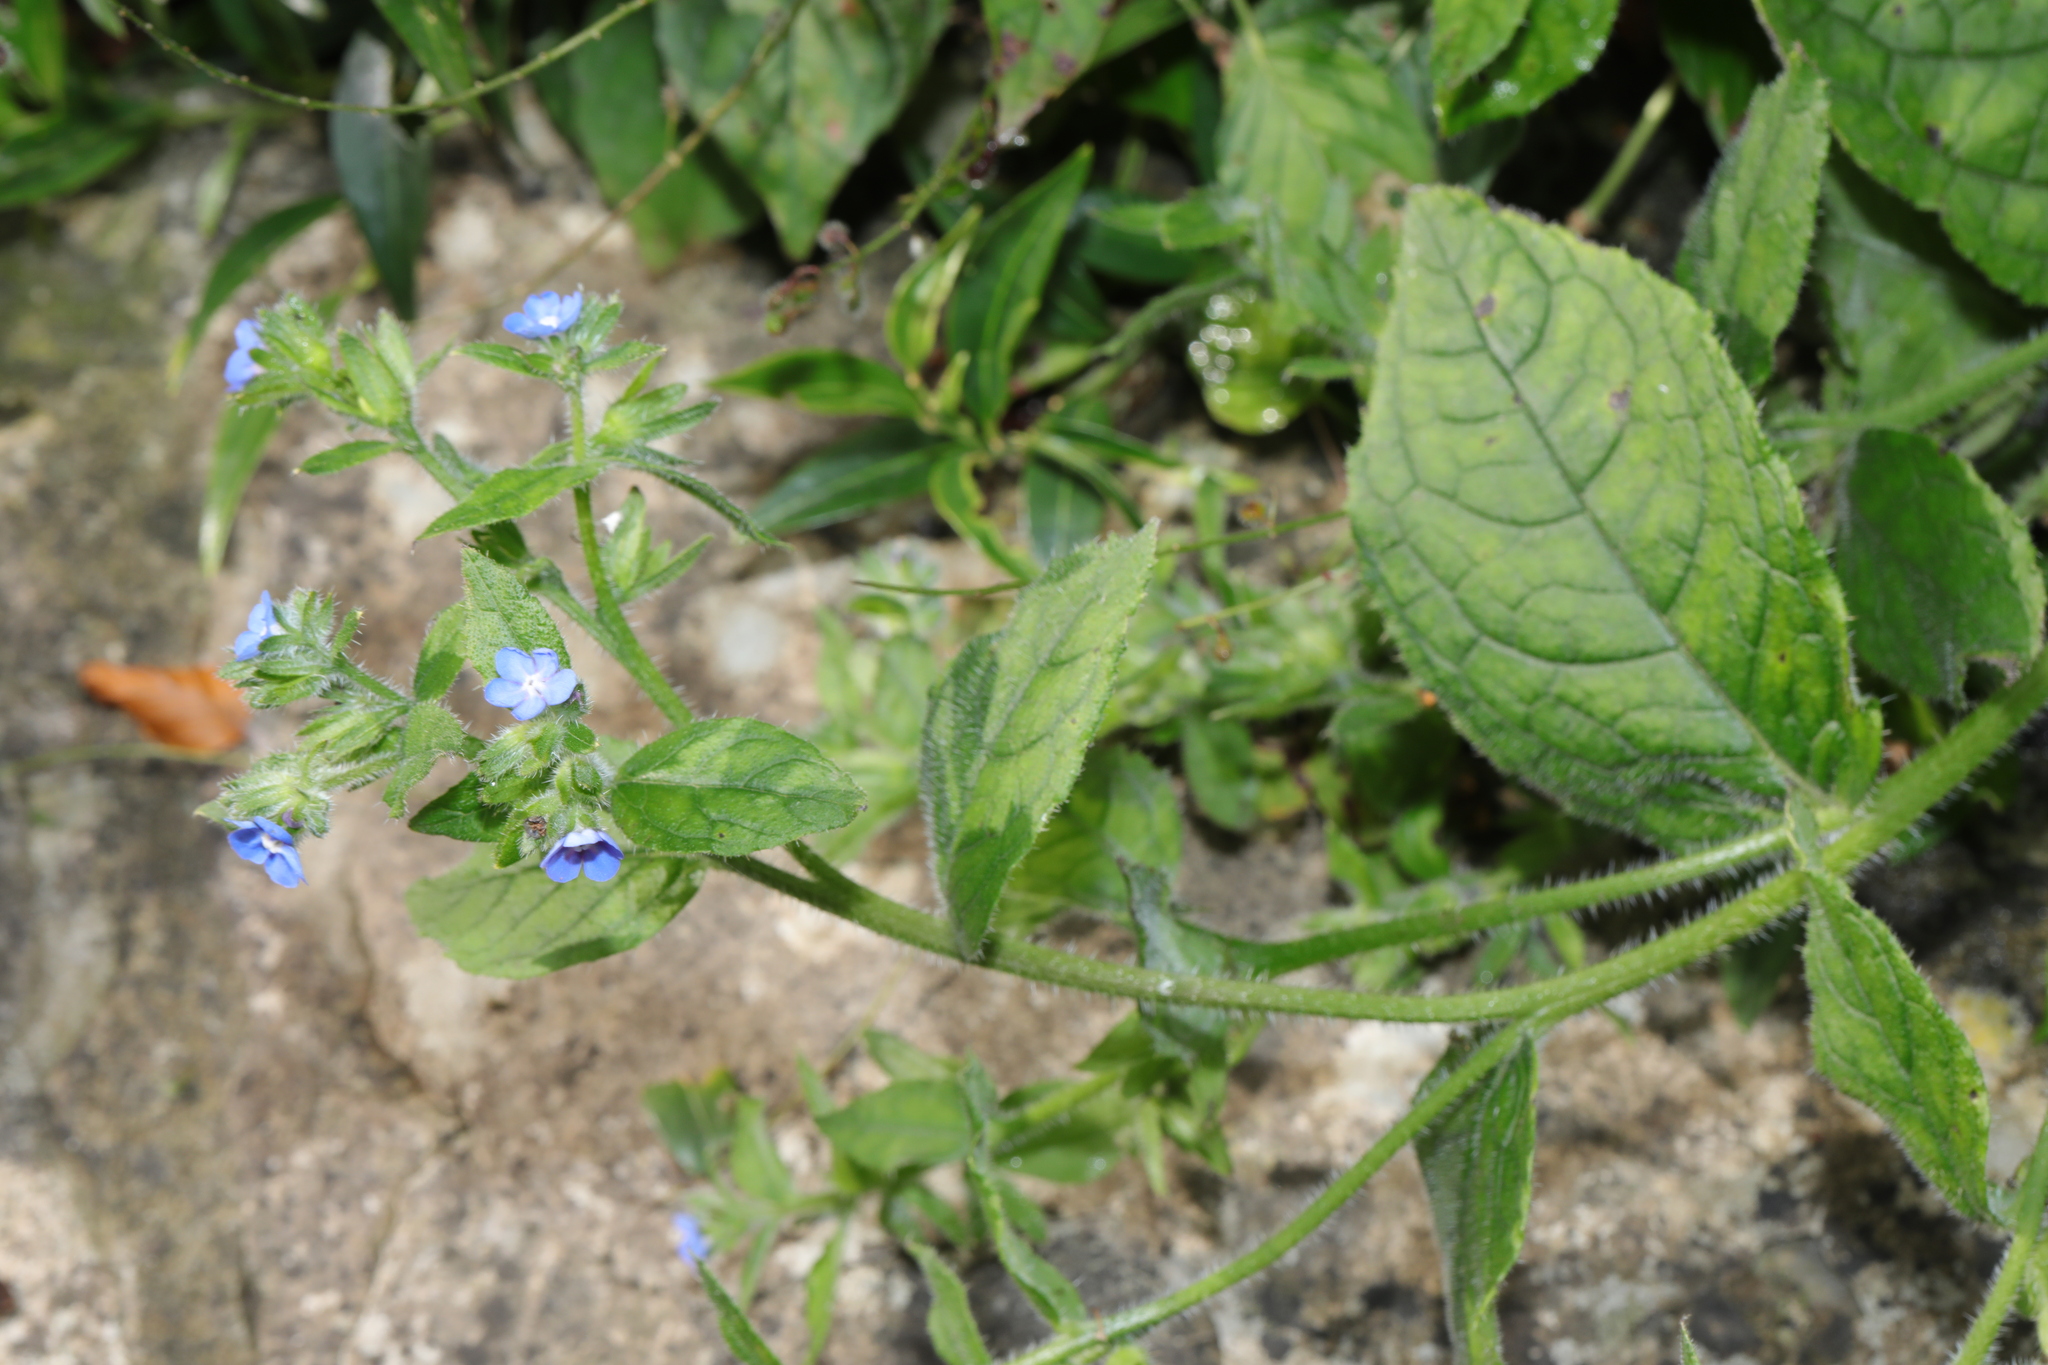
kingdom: Plantae
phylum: Tracheophyta
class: Magnoliopsida
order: Boraginales
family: Boraginaceae
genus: Pentaglottis
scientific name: Pentaglottis sempervirens
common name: Green alkanet
